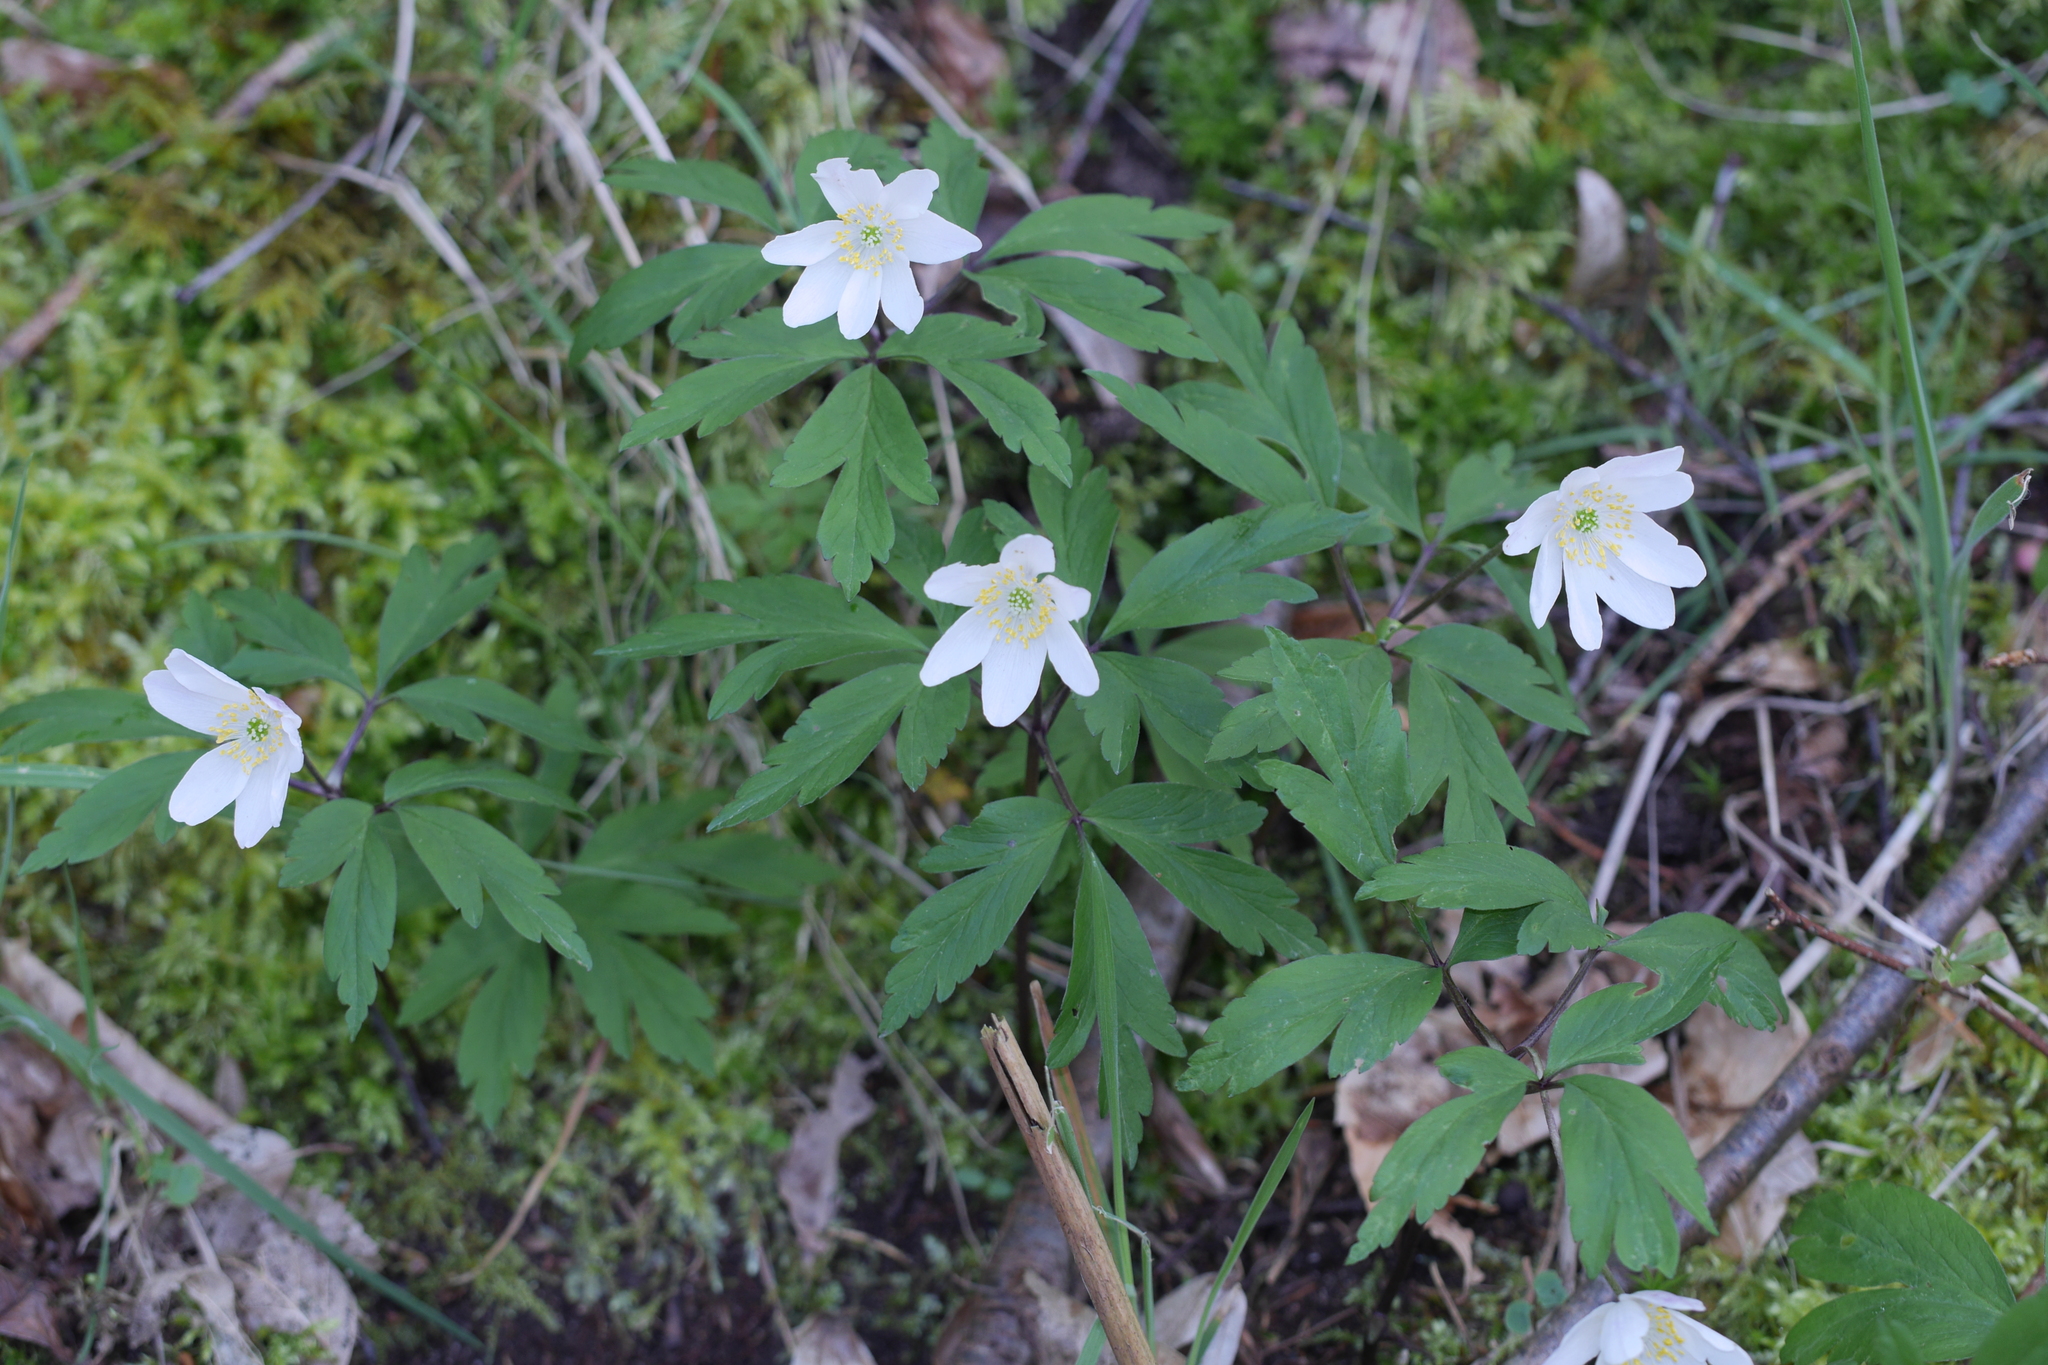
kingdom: Plantae
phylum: Tracheophyta
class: Magnoliopsida
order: Ranunculales
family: Ranunculaceae
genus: Anemone
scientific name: Anemone nemorosa
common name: Wood anemone
